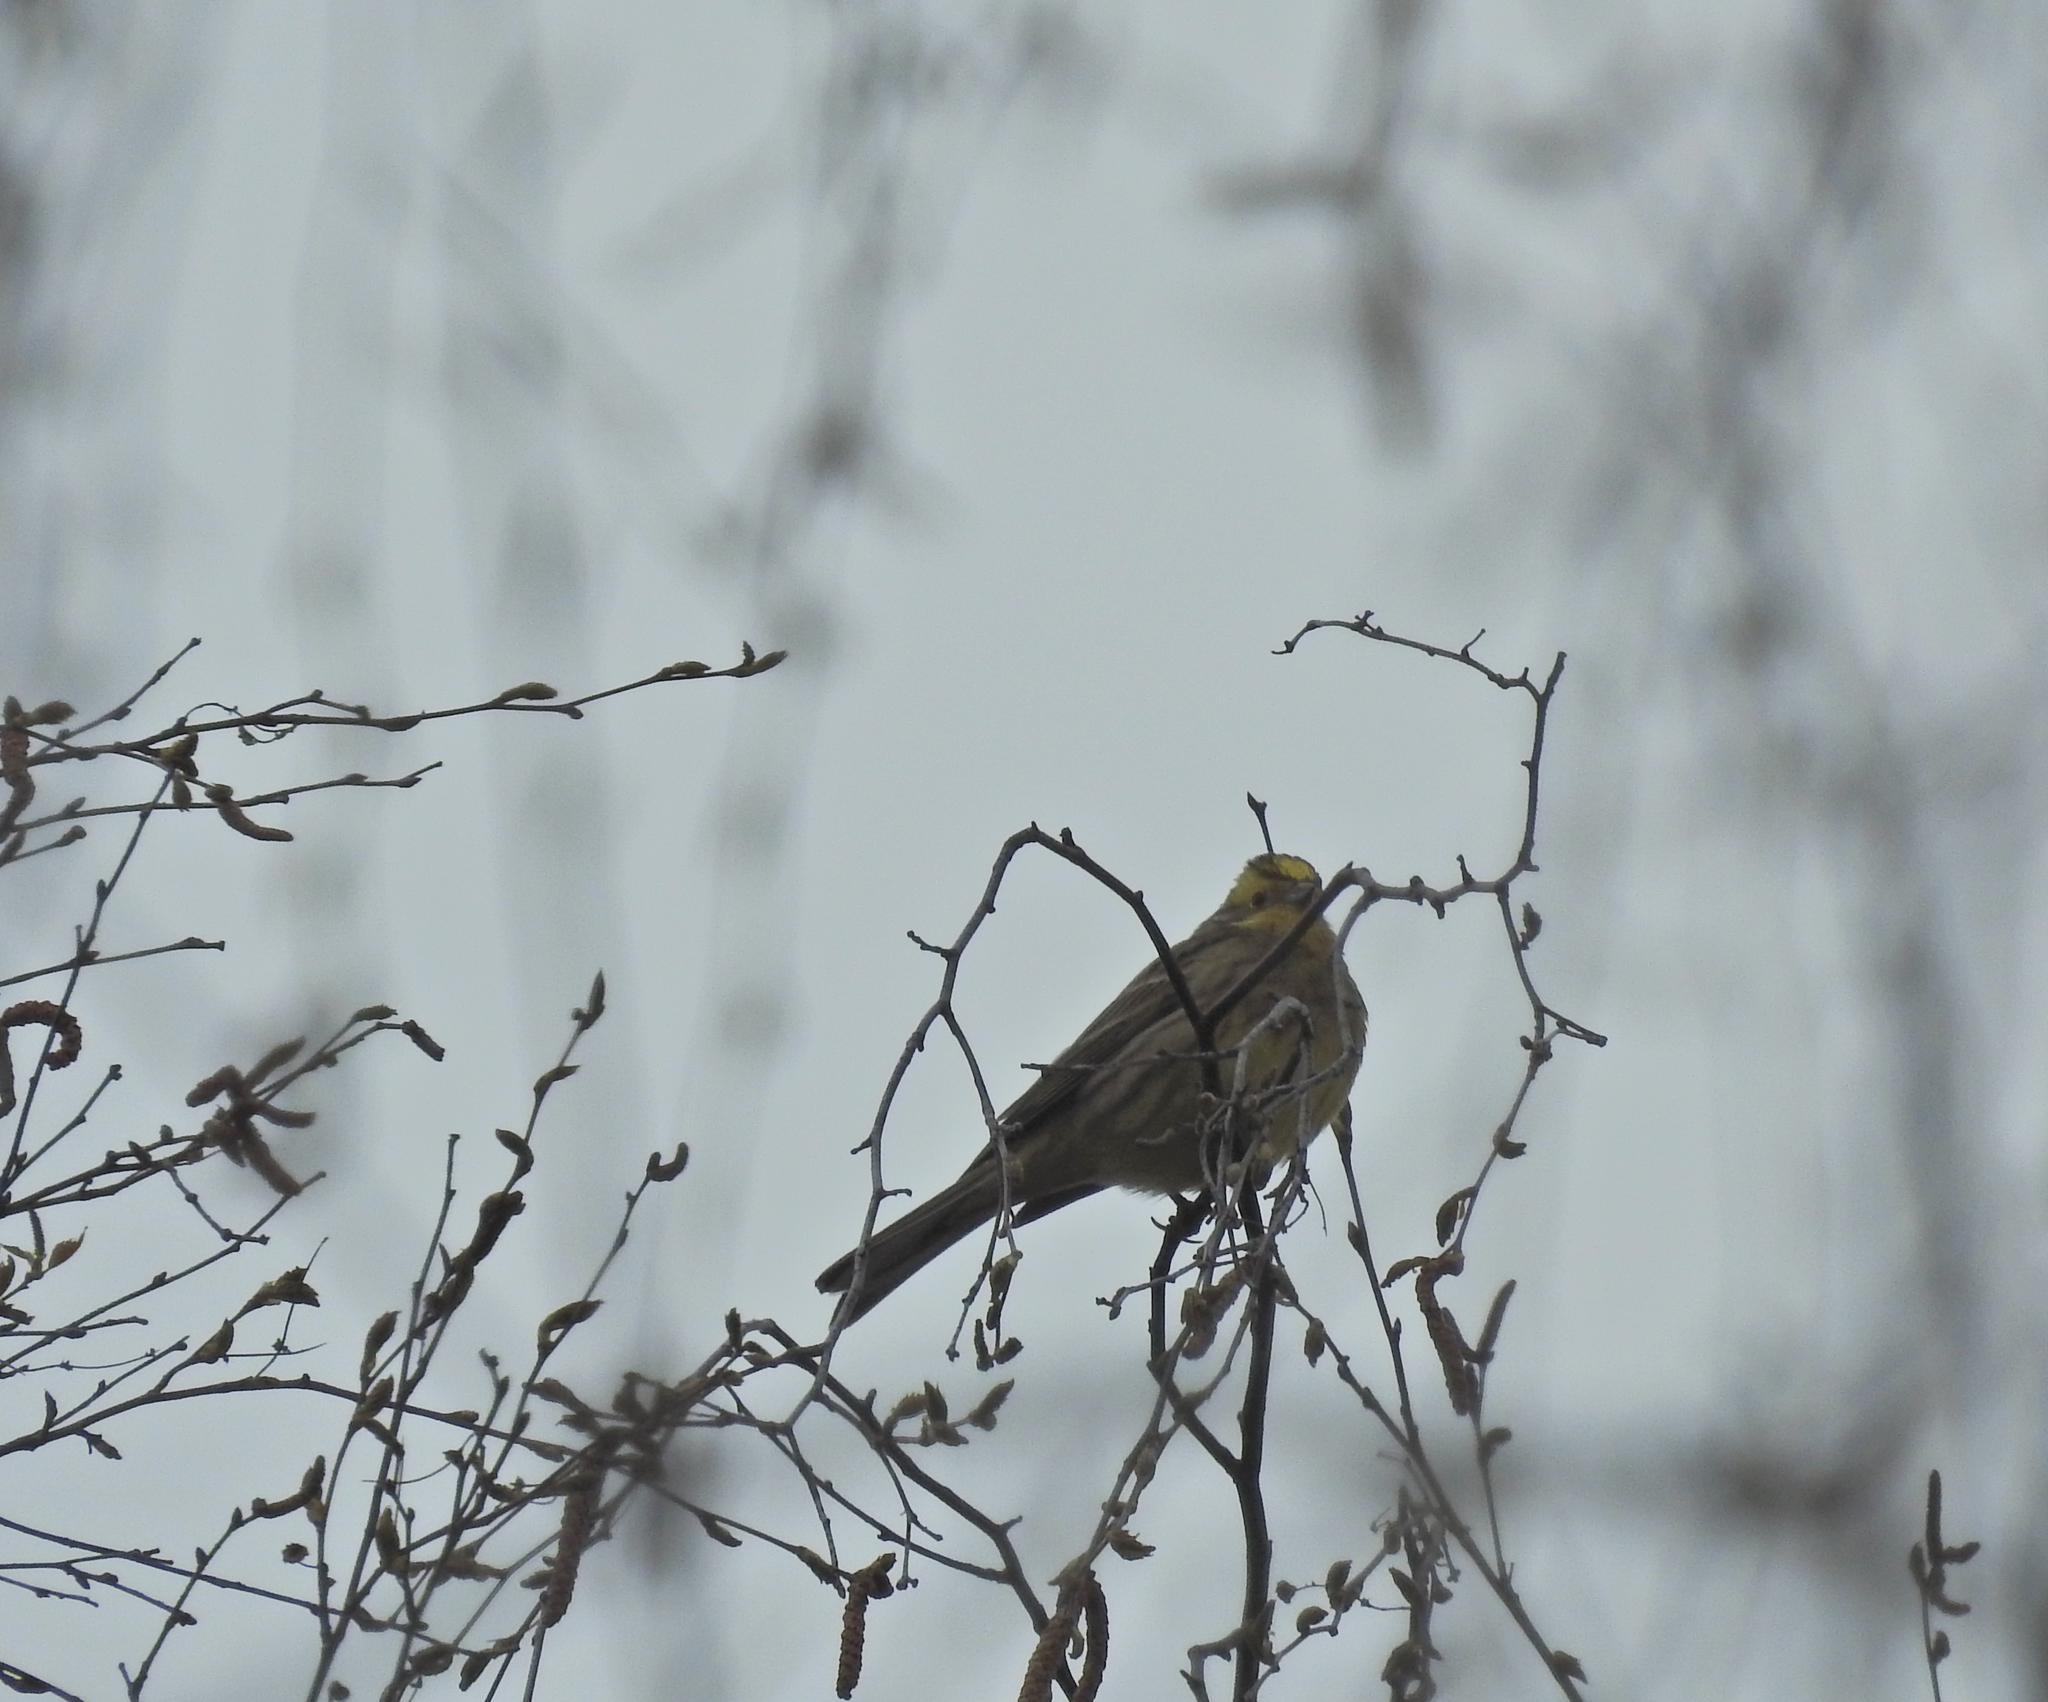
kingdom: Animalia
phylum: Chordata
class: Aves
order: Passeriformes
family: Emberizidae
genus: Emberiza
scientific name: Emberiza citrinella
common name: Yellowhammer
